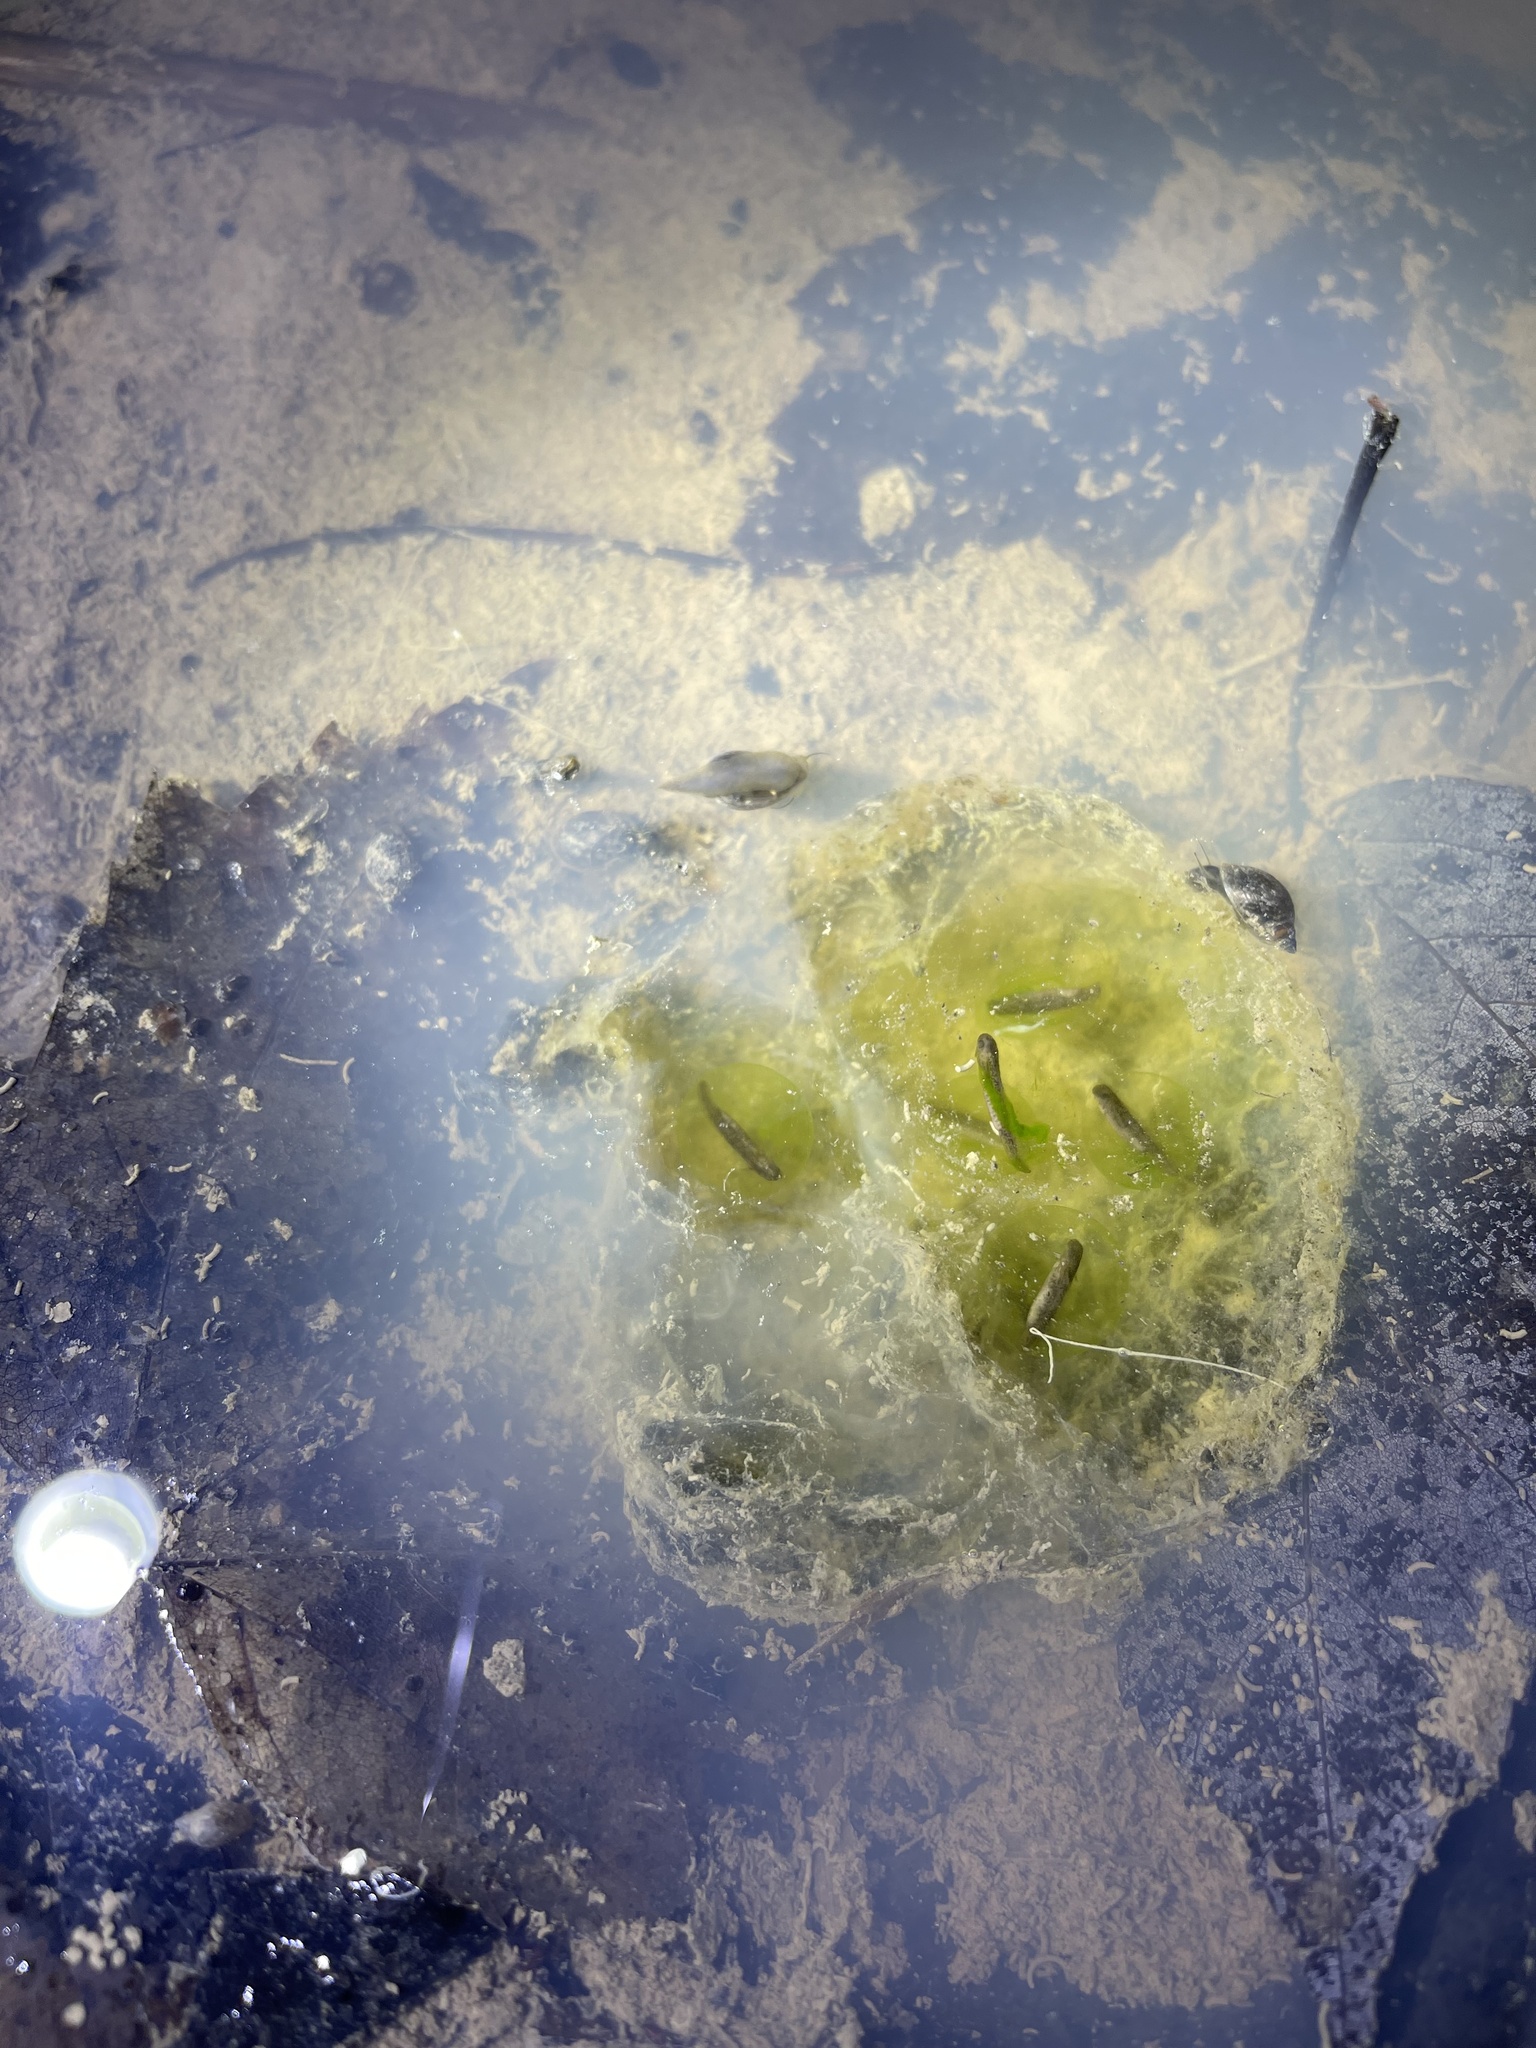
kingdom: Animalia
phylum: Chordata
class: Amphibia
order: Caudata
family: Ambystomatidae
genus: Ambystoma
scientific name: Ambystoma maculatum
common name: Spotted salamander
